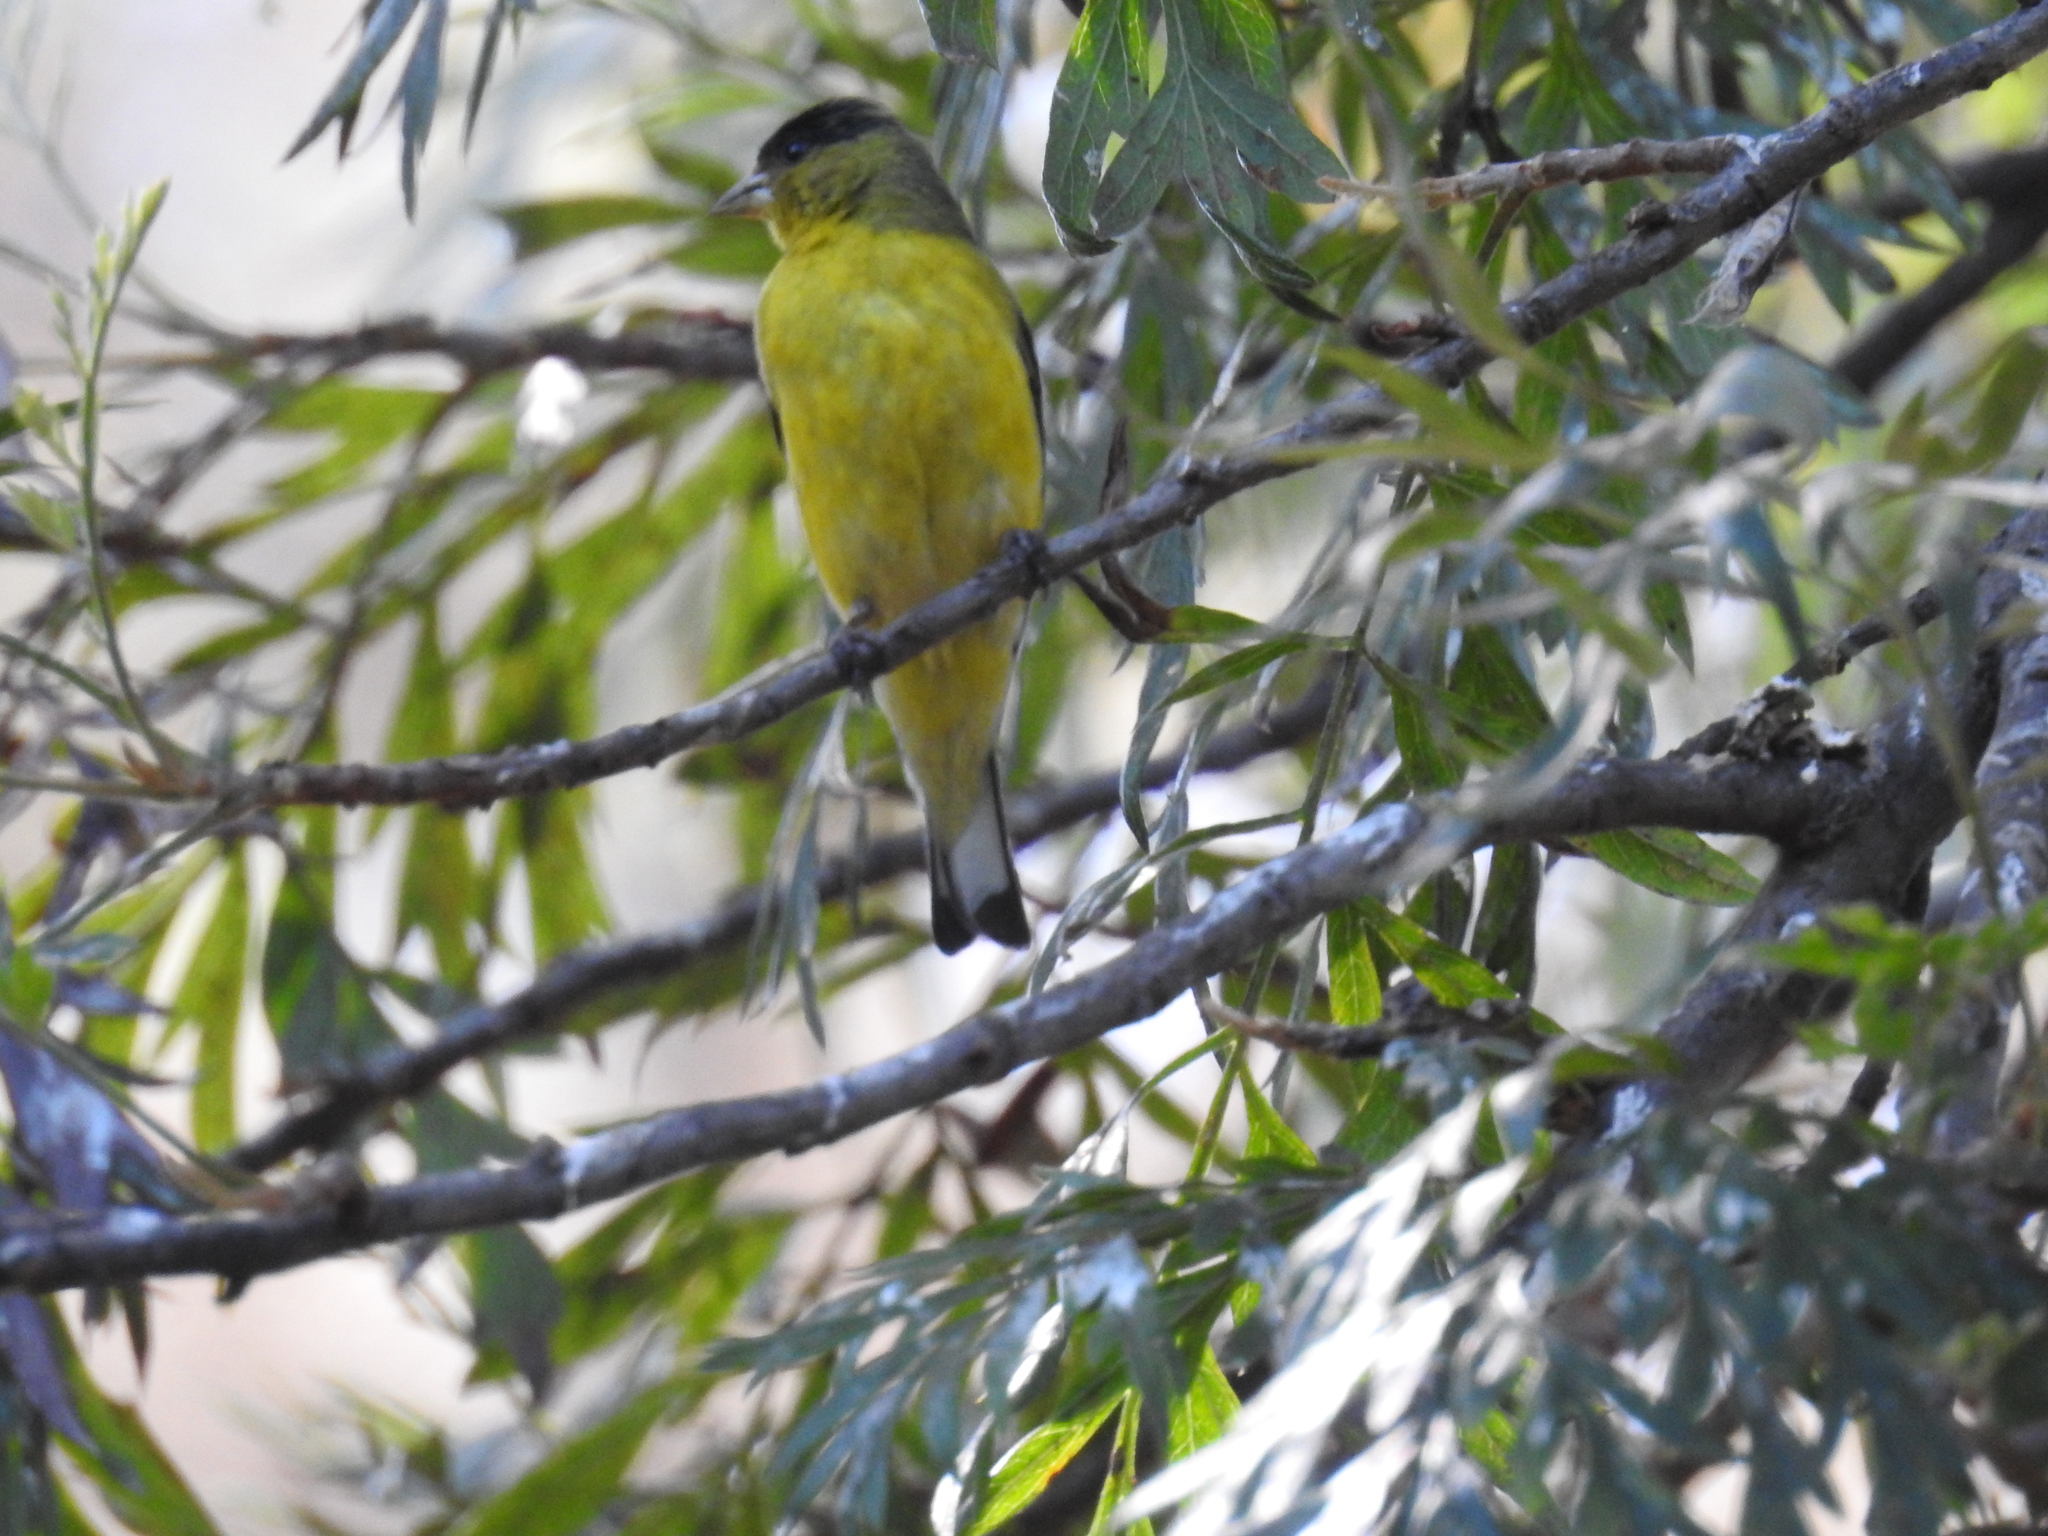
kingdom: Animalia
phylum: Chordata
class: Aves
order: Passeriformes
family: Fringillidae
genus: Spinus
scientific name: Spinus psaltria
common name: Lesser goldfinch
